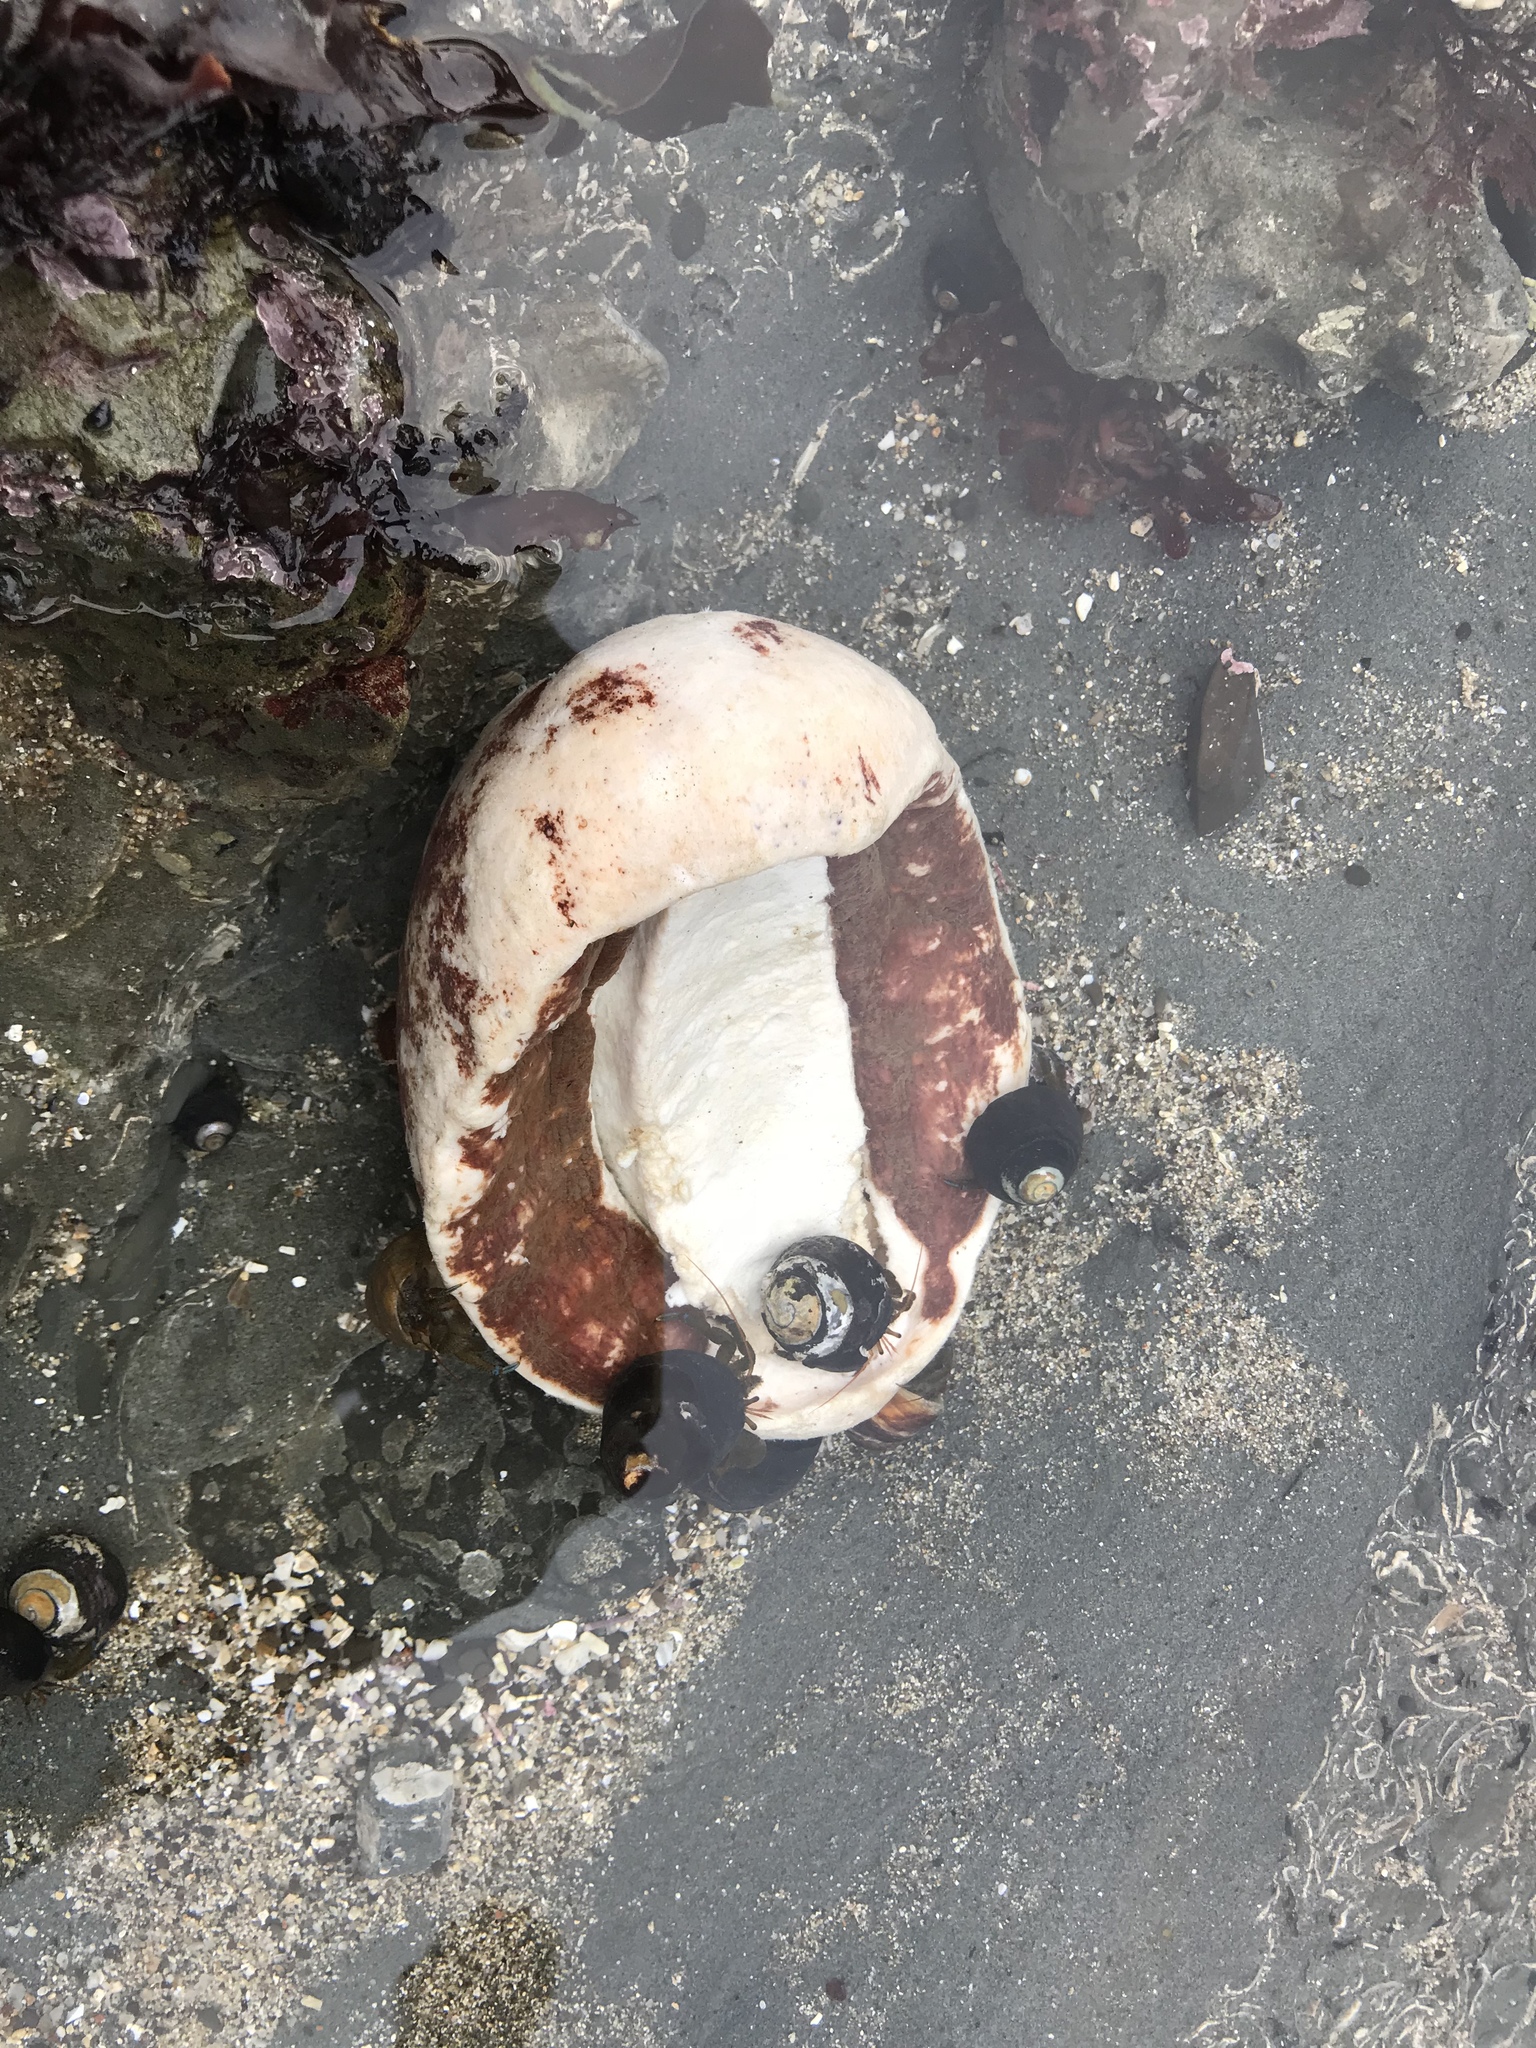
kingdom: Animalia
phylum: Mollusca
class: Polyplacophora
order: Chitonida
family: Acanthochitonidae
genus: Cryptochiton
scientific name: Cryptochiton stelleri
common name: Giant pacific chiton
